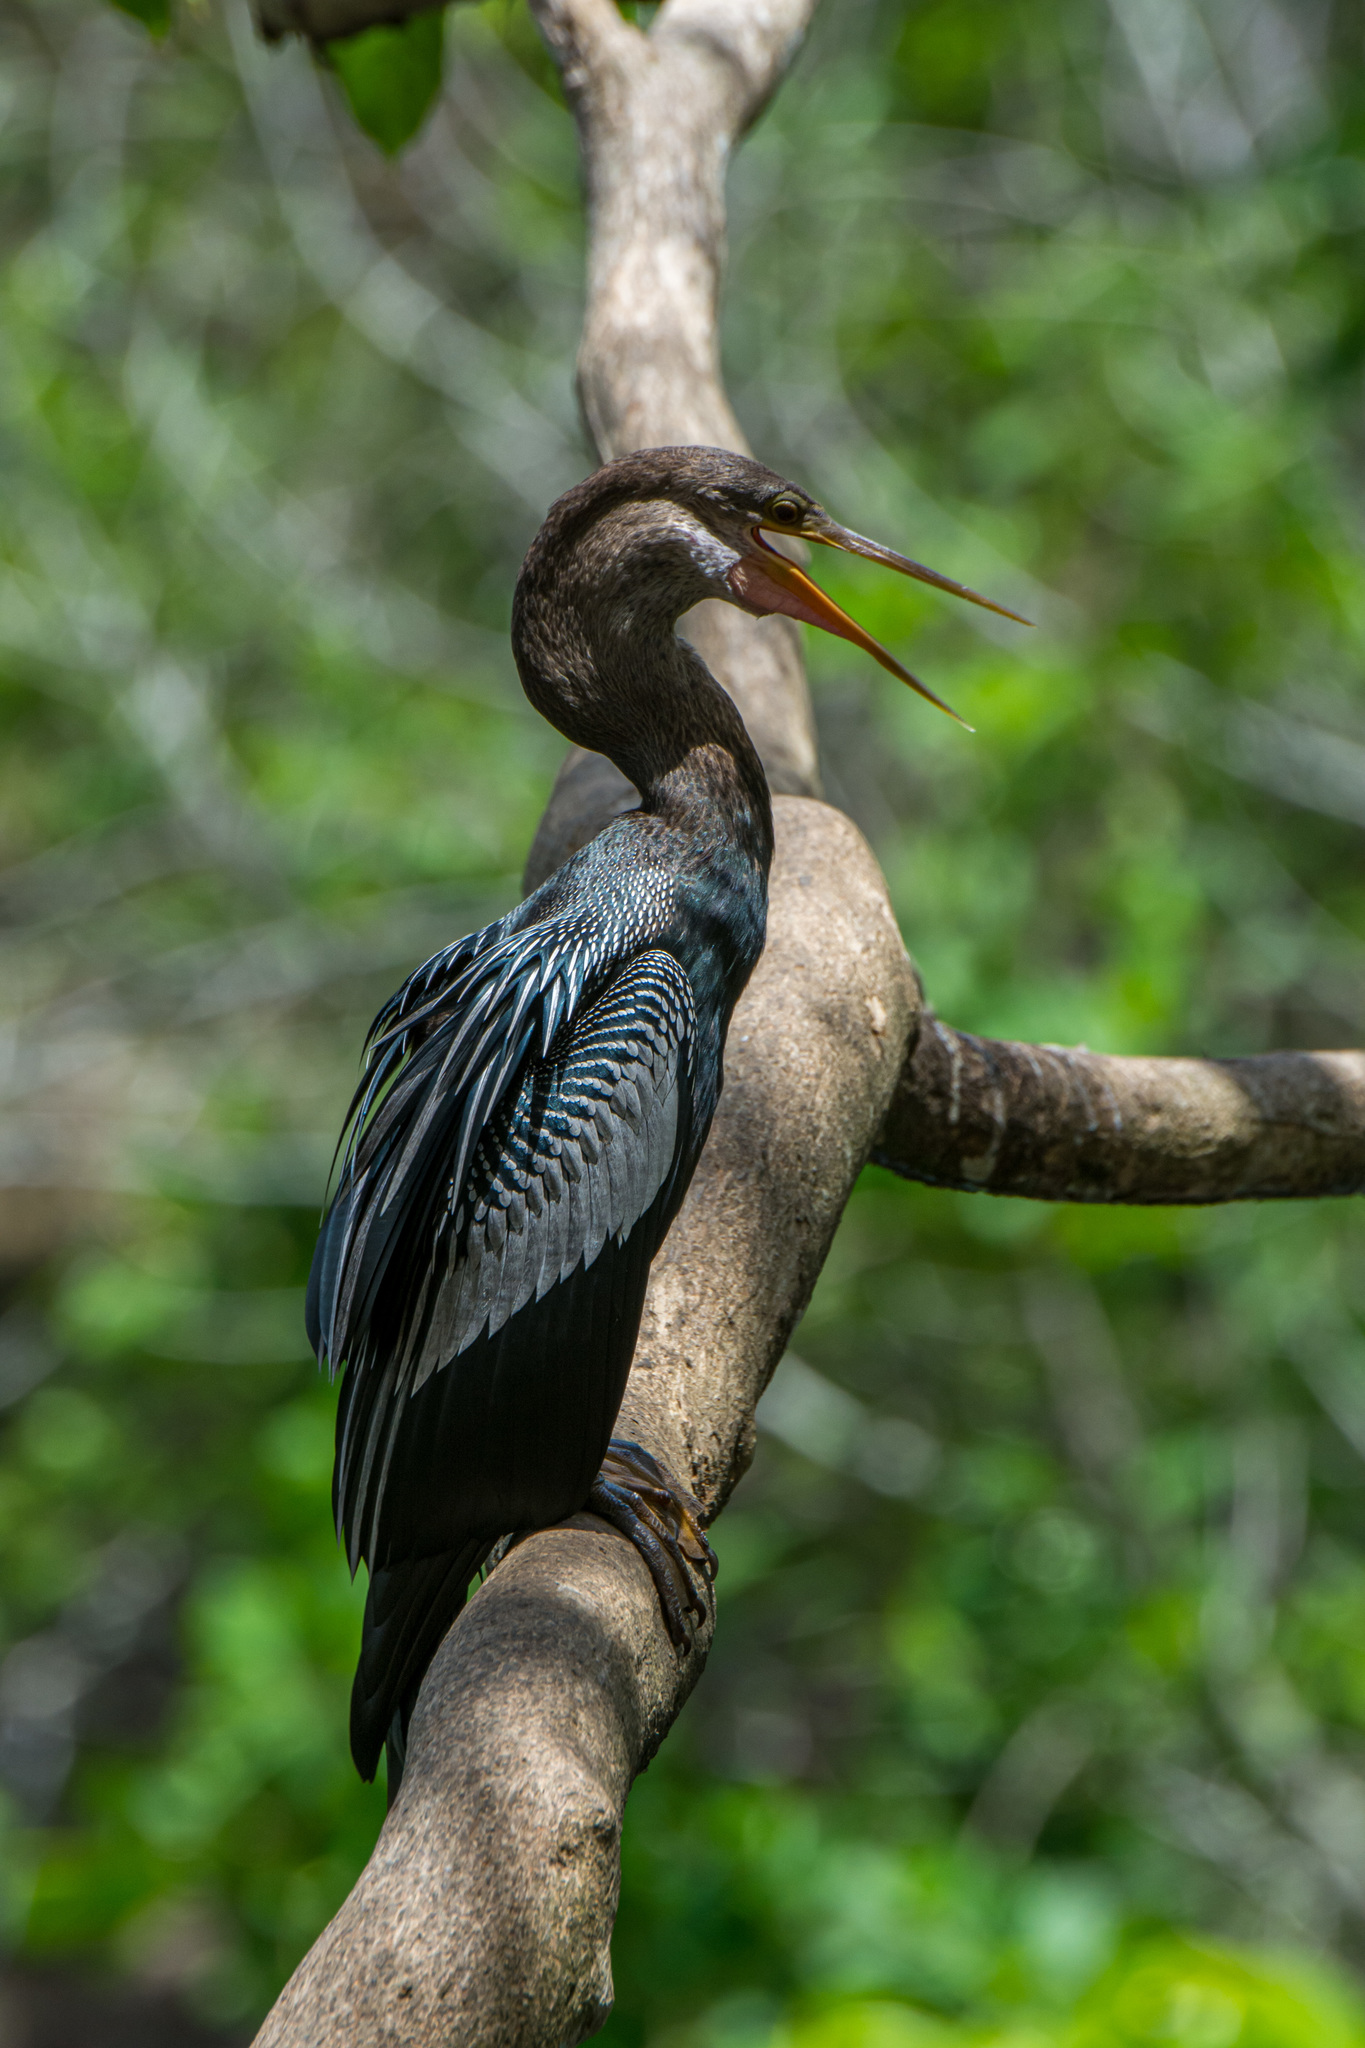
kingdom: Animalia
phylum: Chordata
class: Aves
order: Suliformes
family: Anhingidae
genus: Anhinga
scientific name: Anhinga anhinga
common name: Anhinga
